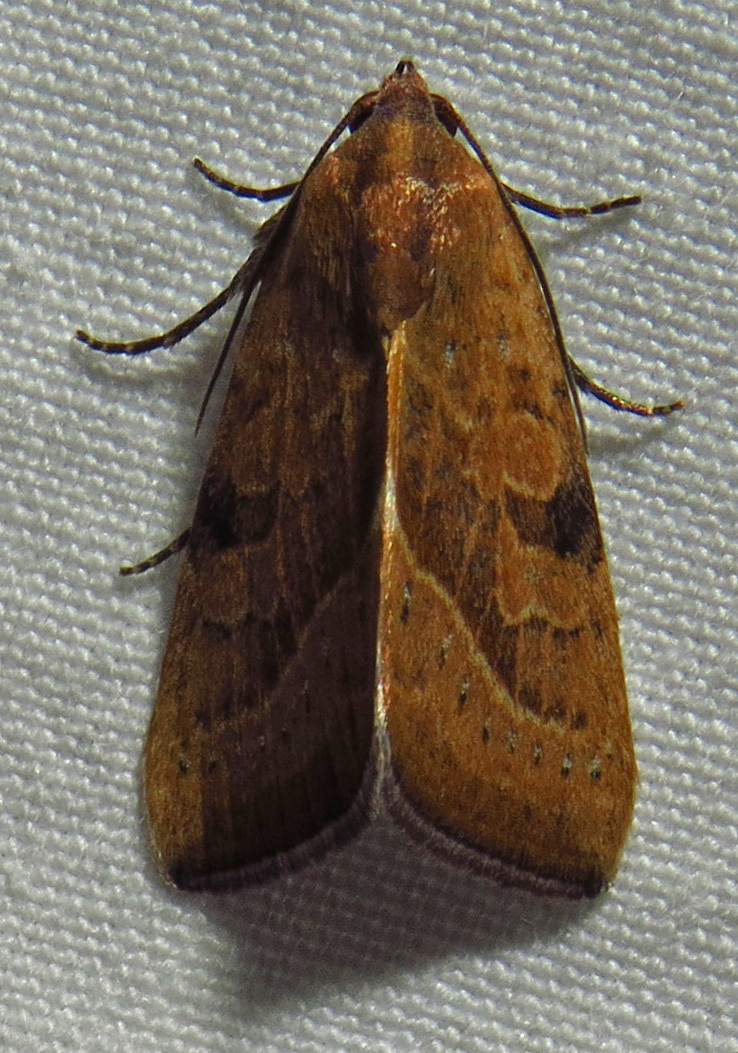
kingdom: Animalia
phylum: Arthropoda
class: Insecta
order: Lepidoptera
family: Noctuidae
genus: Galgula
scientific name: Galgula partita
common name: Wedgeling
